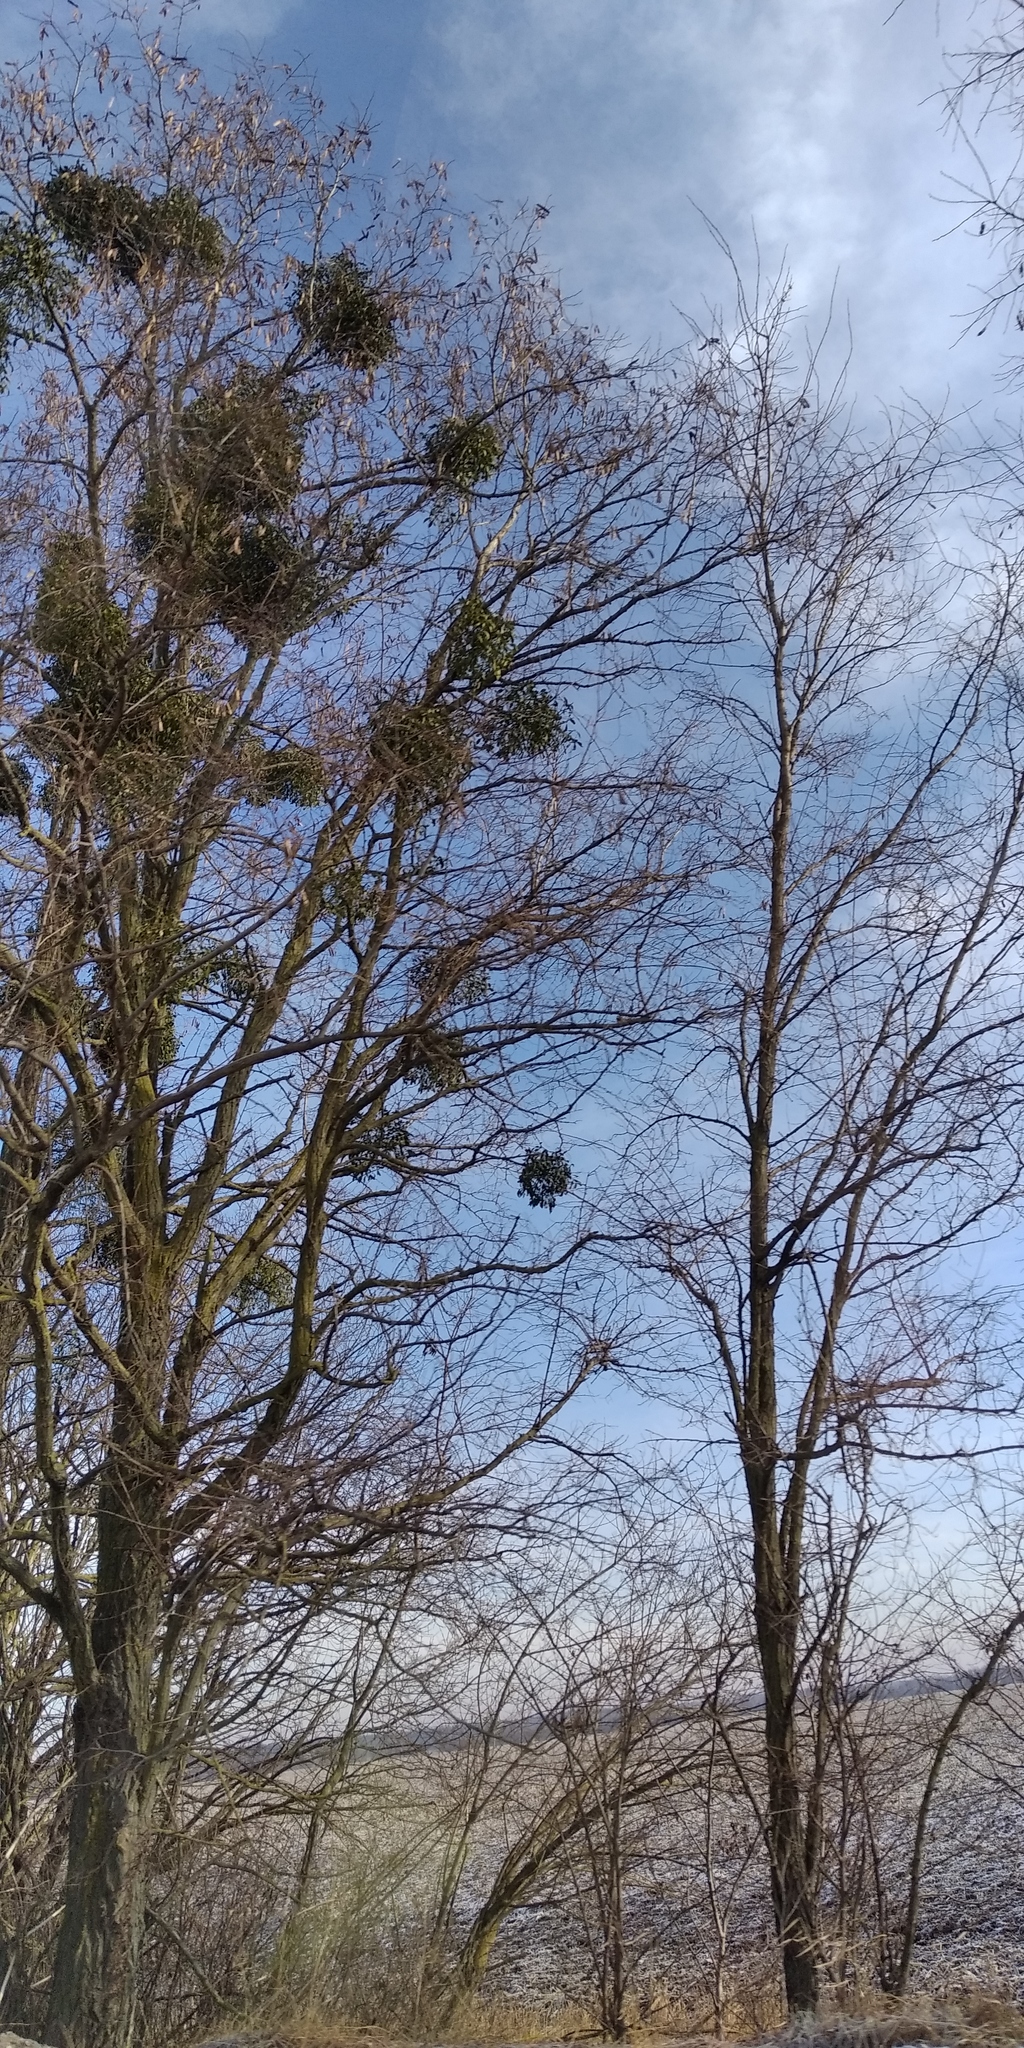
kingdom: Plantae
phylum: Tracheophyta
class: Magnoliopsida
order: Santalales
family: Viscaceae
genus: Viscum
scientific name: Viscum album
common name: Mistletoe
